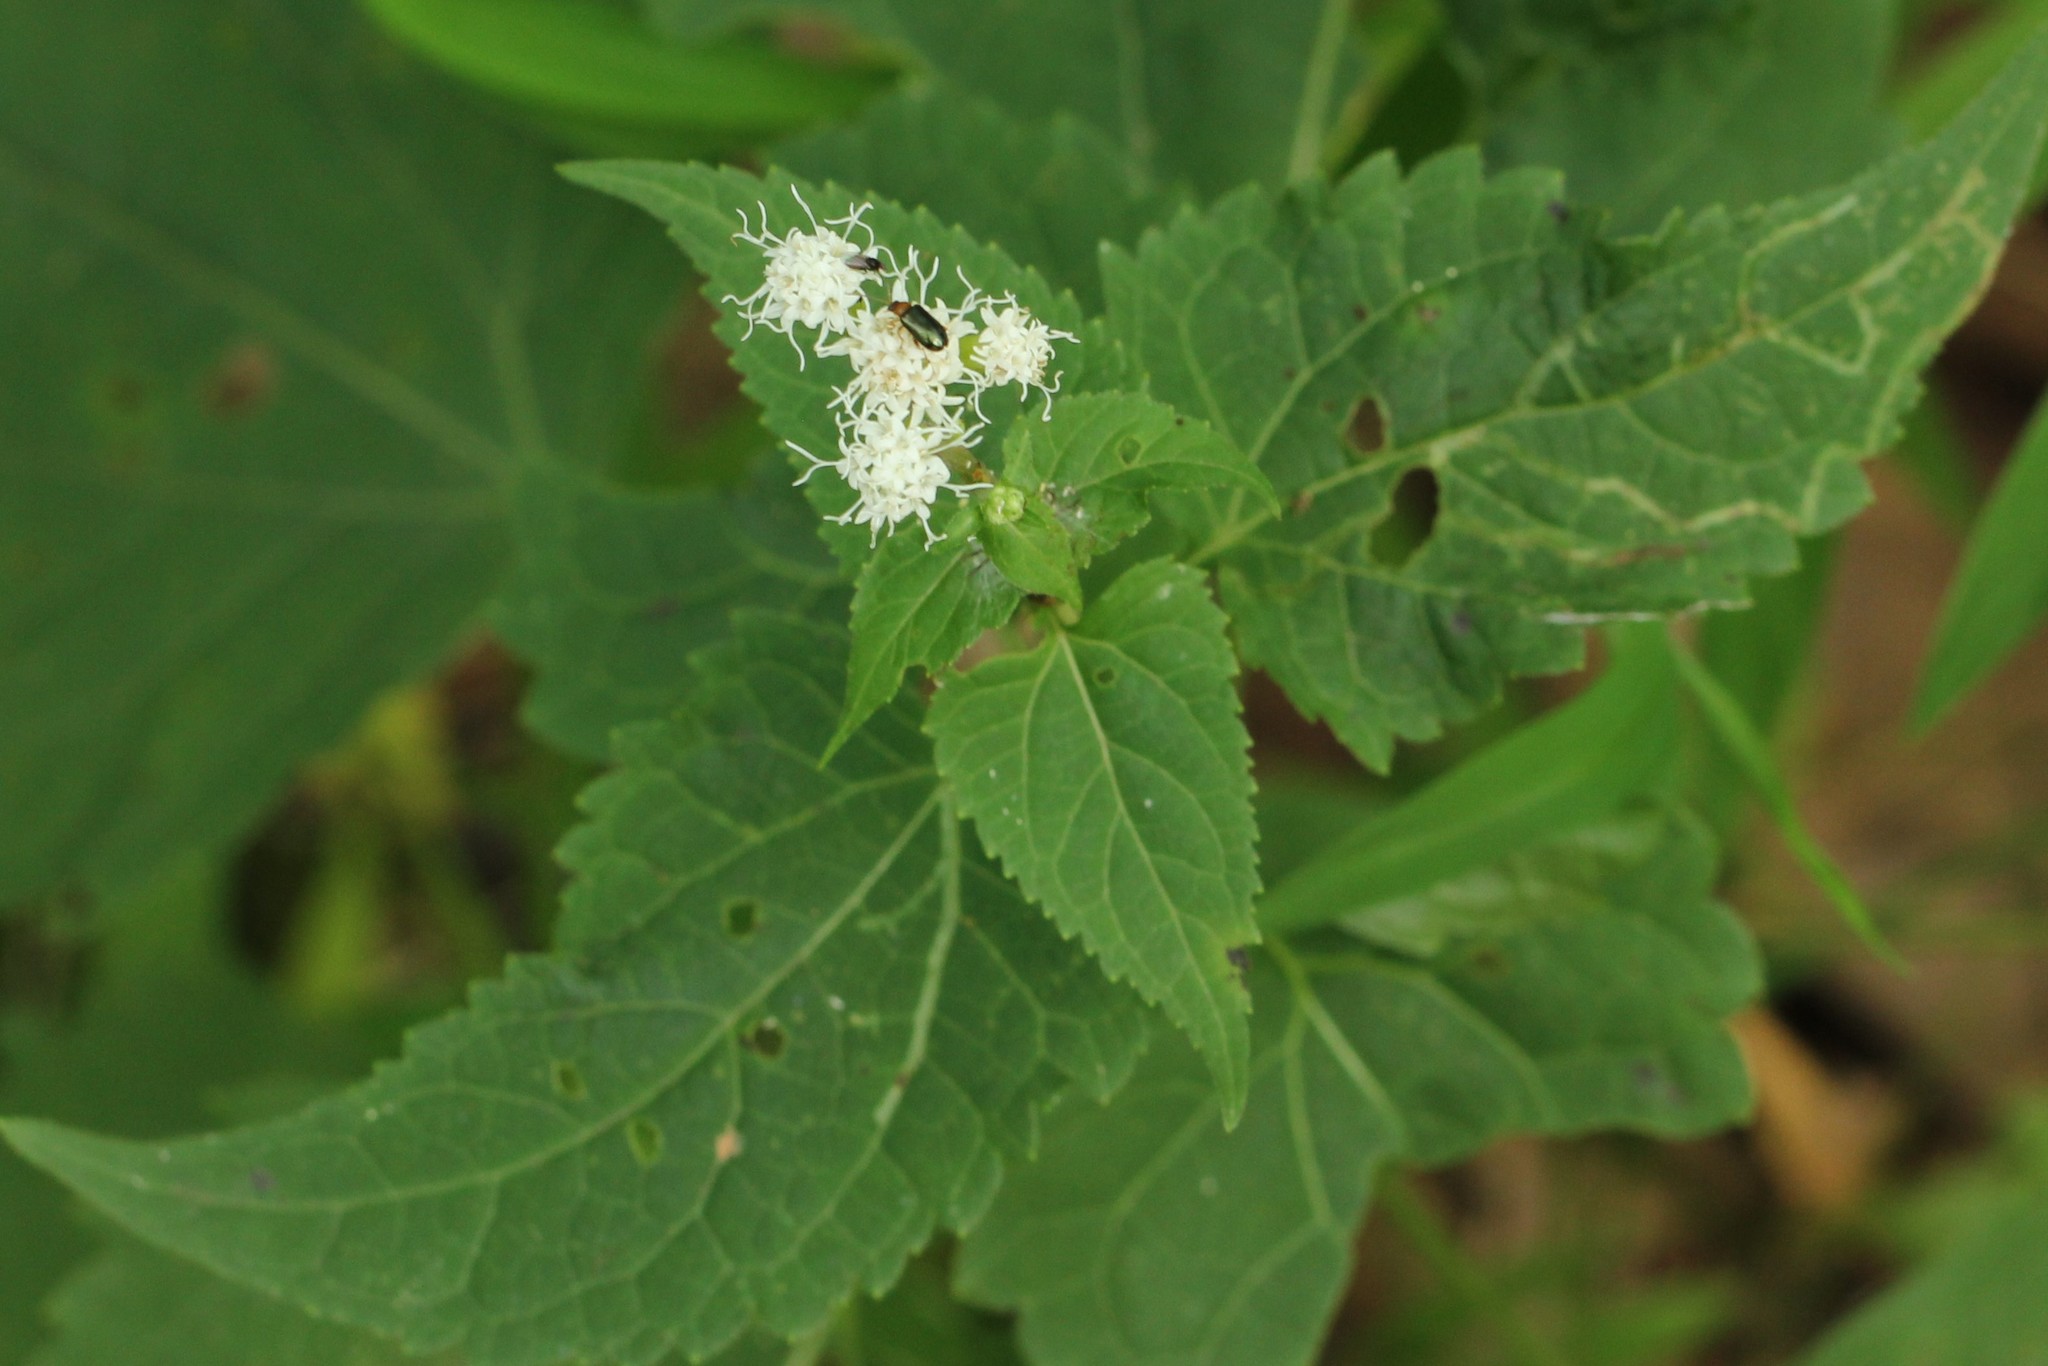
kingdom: Plantae
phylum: Tracheophyta
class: Magnoliopsida
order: Asterales
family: Asteraceae
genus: Ageratina
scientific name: Ageratina altissima
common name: White snakeroot
